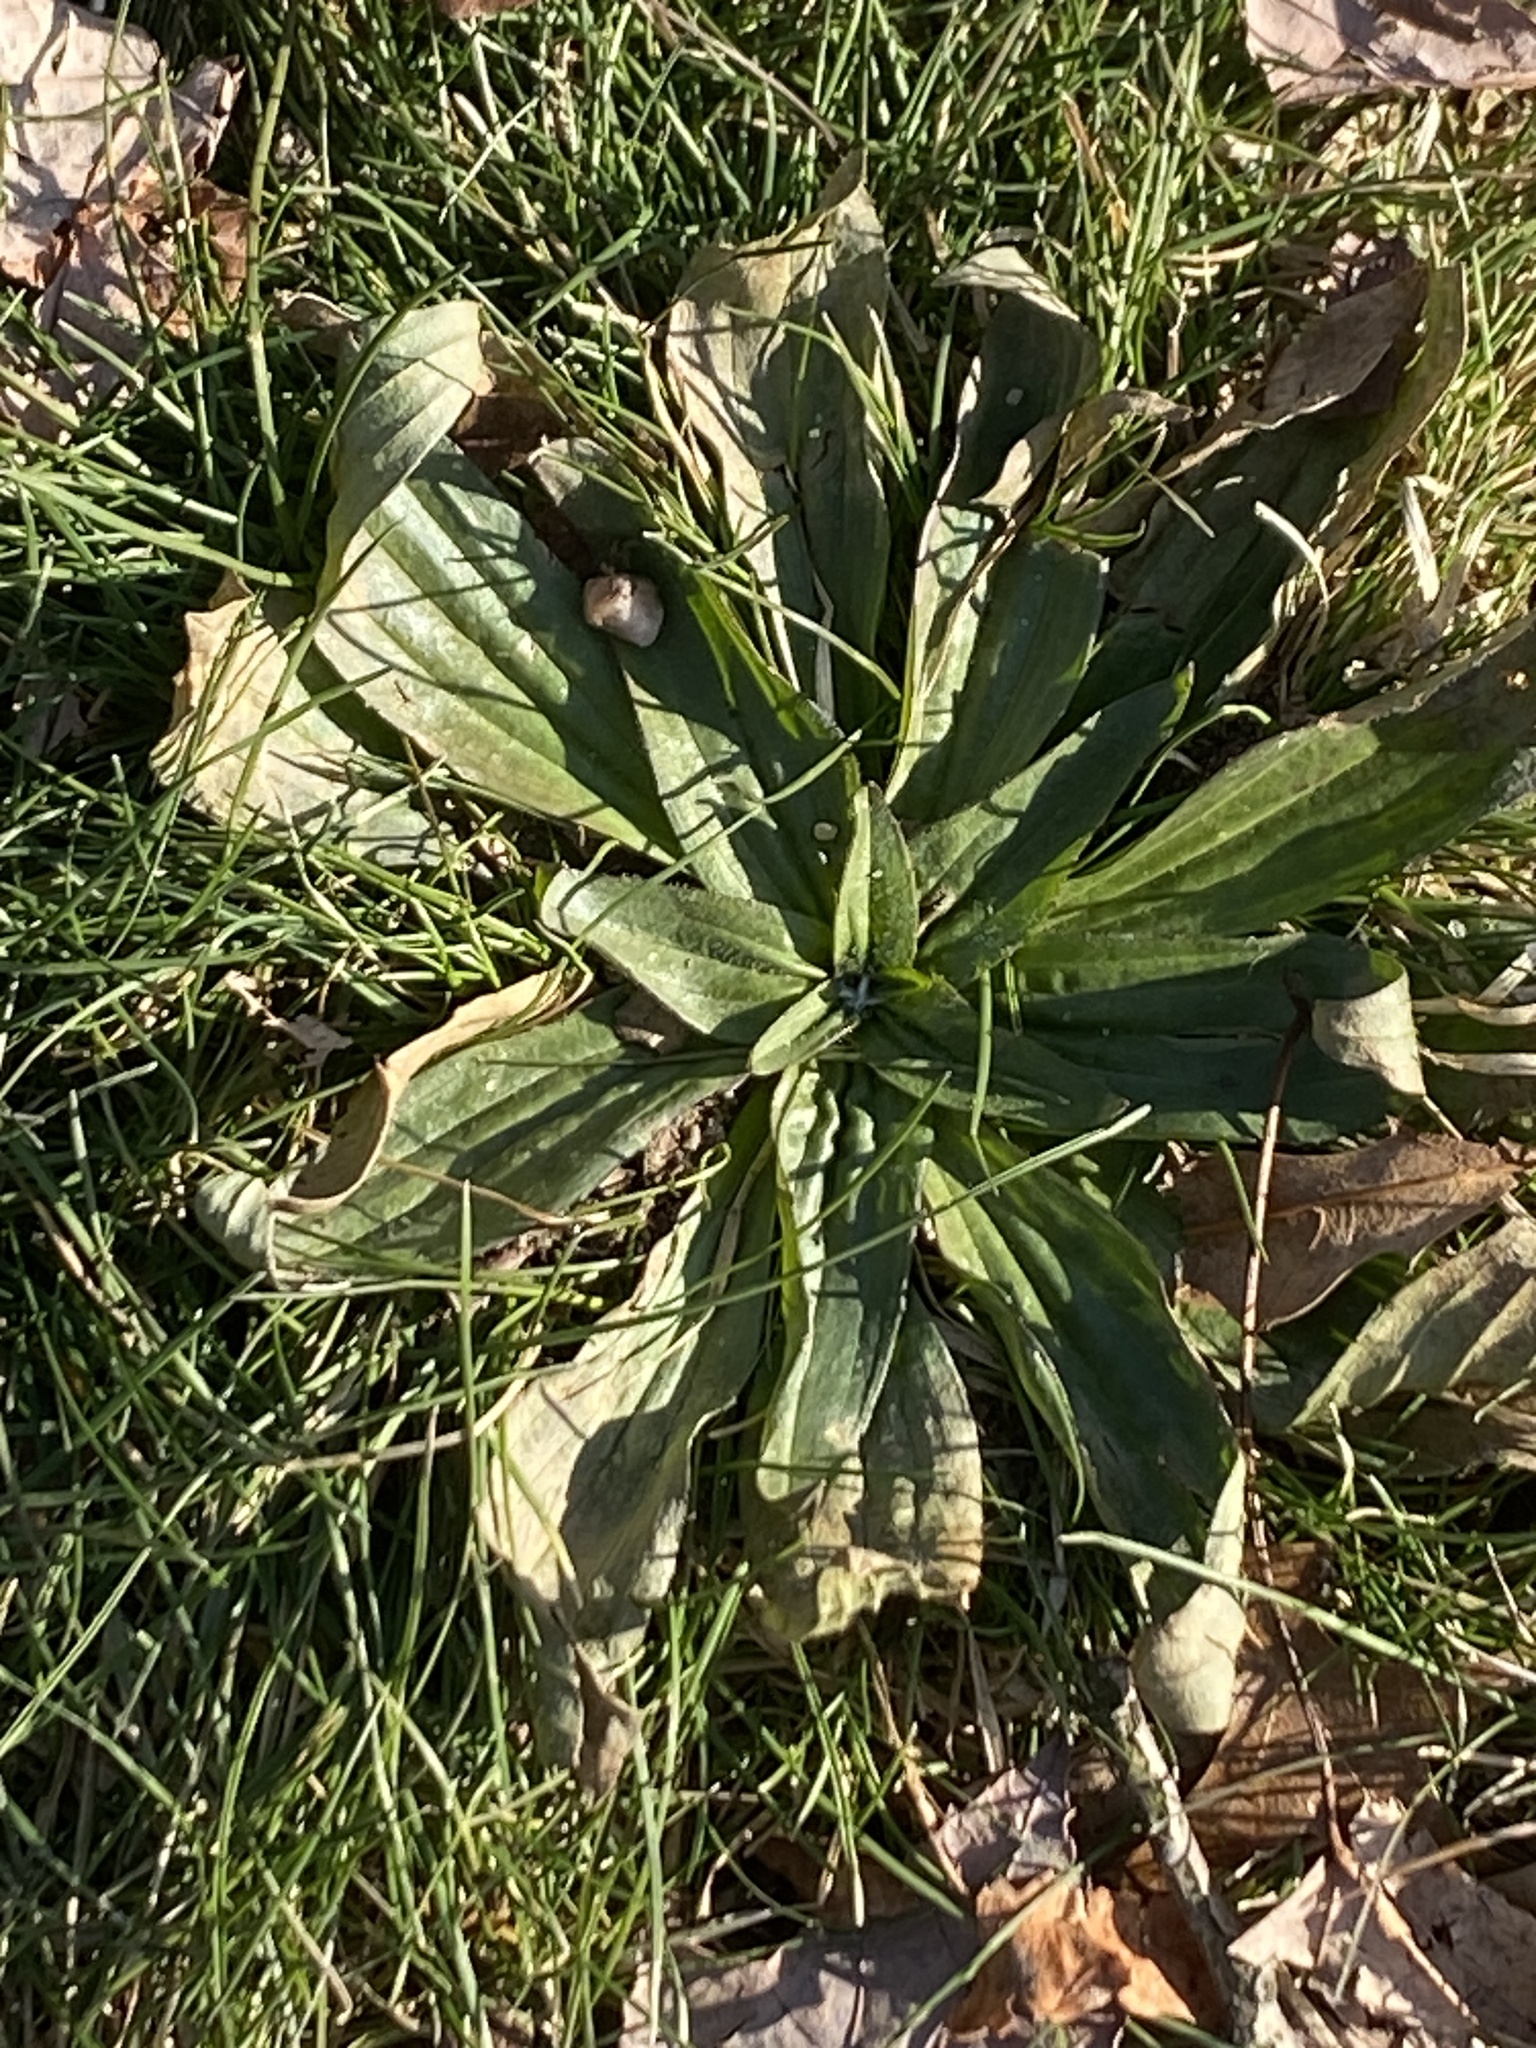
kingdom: Plantae
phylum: Tracheophyta
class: Magnoliopsida
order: Lamiales
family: Plantaginaceae
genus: Plantago
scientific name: Plantago lanceolata
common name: Ribwort plantain
